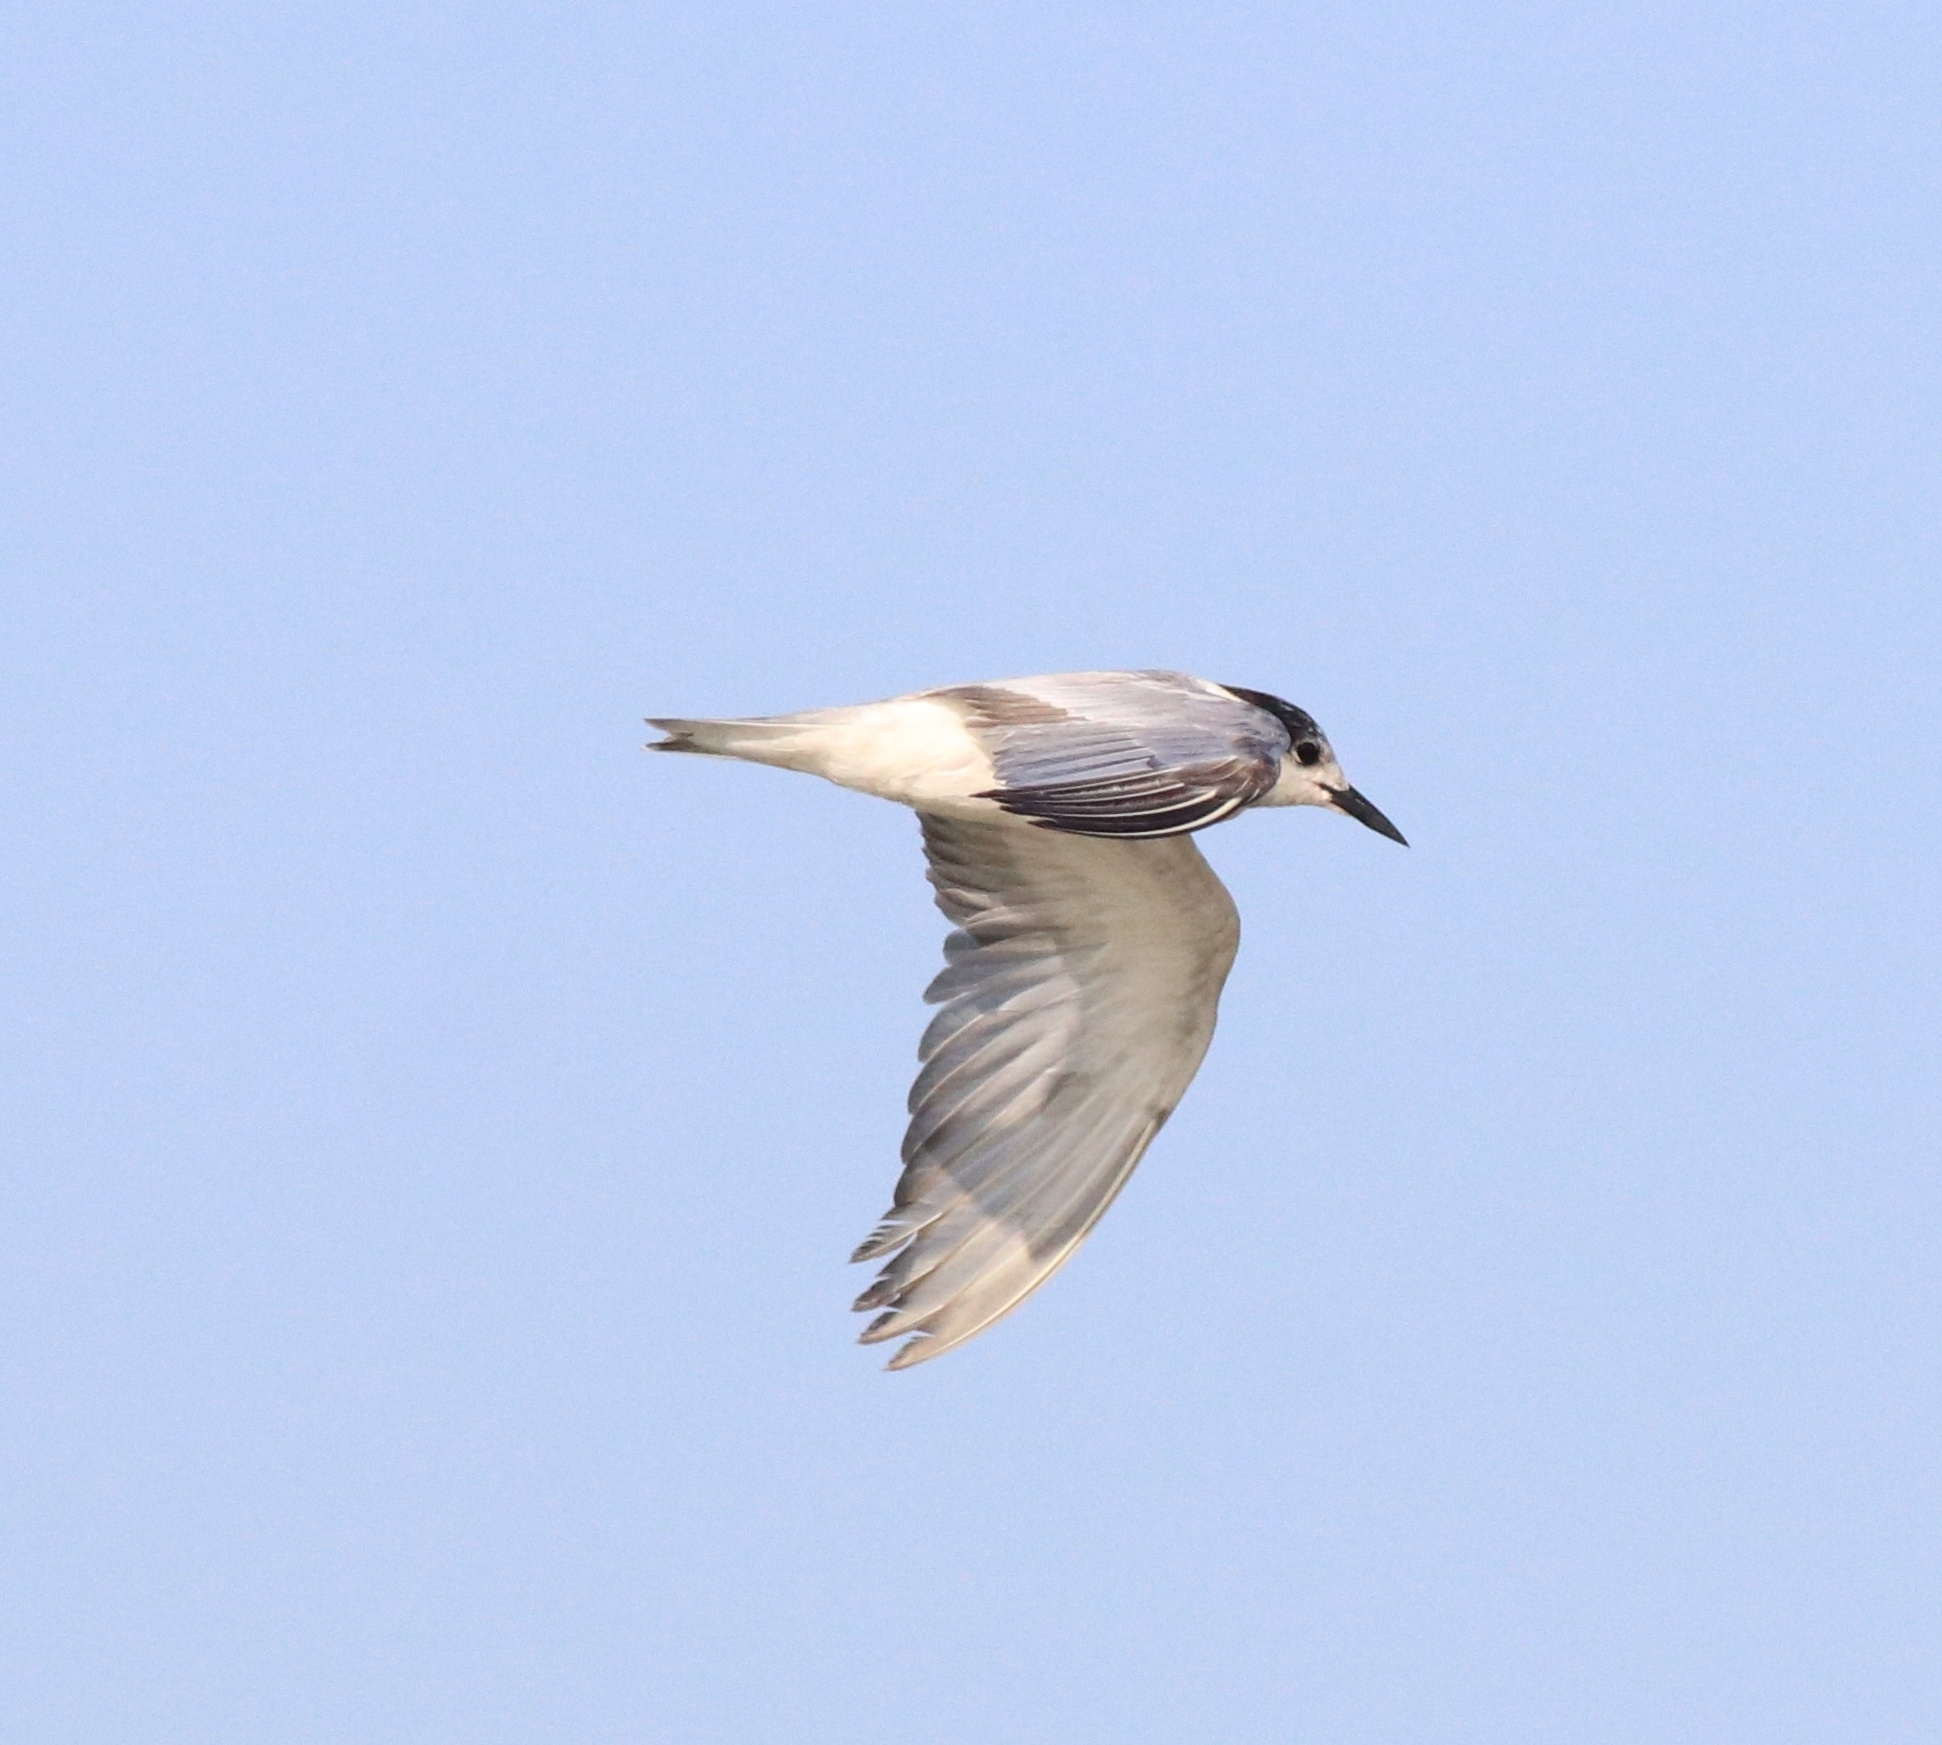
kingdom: Animalia
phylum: Chordata
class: Aves
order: Charadriiformes
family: Laridae
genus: Chlidonias
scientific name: Chlidonias hybrida
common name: Whiskered tern
